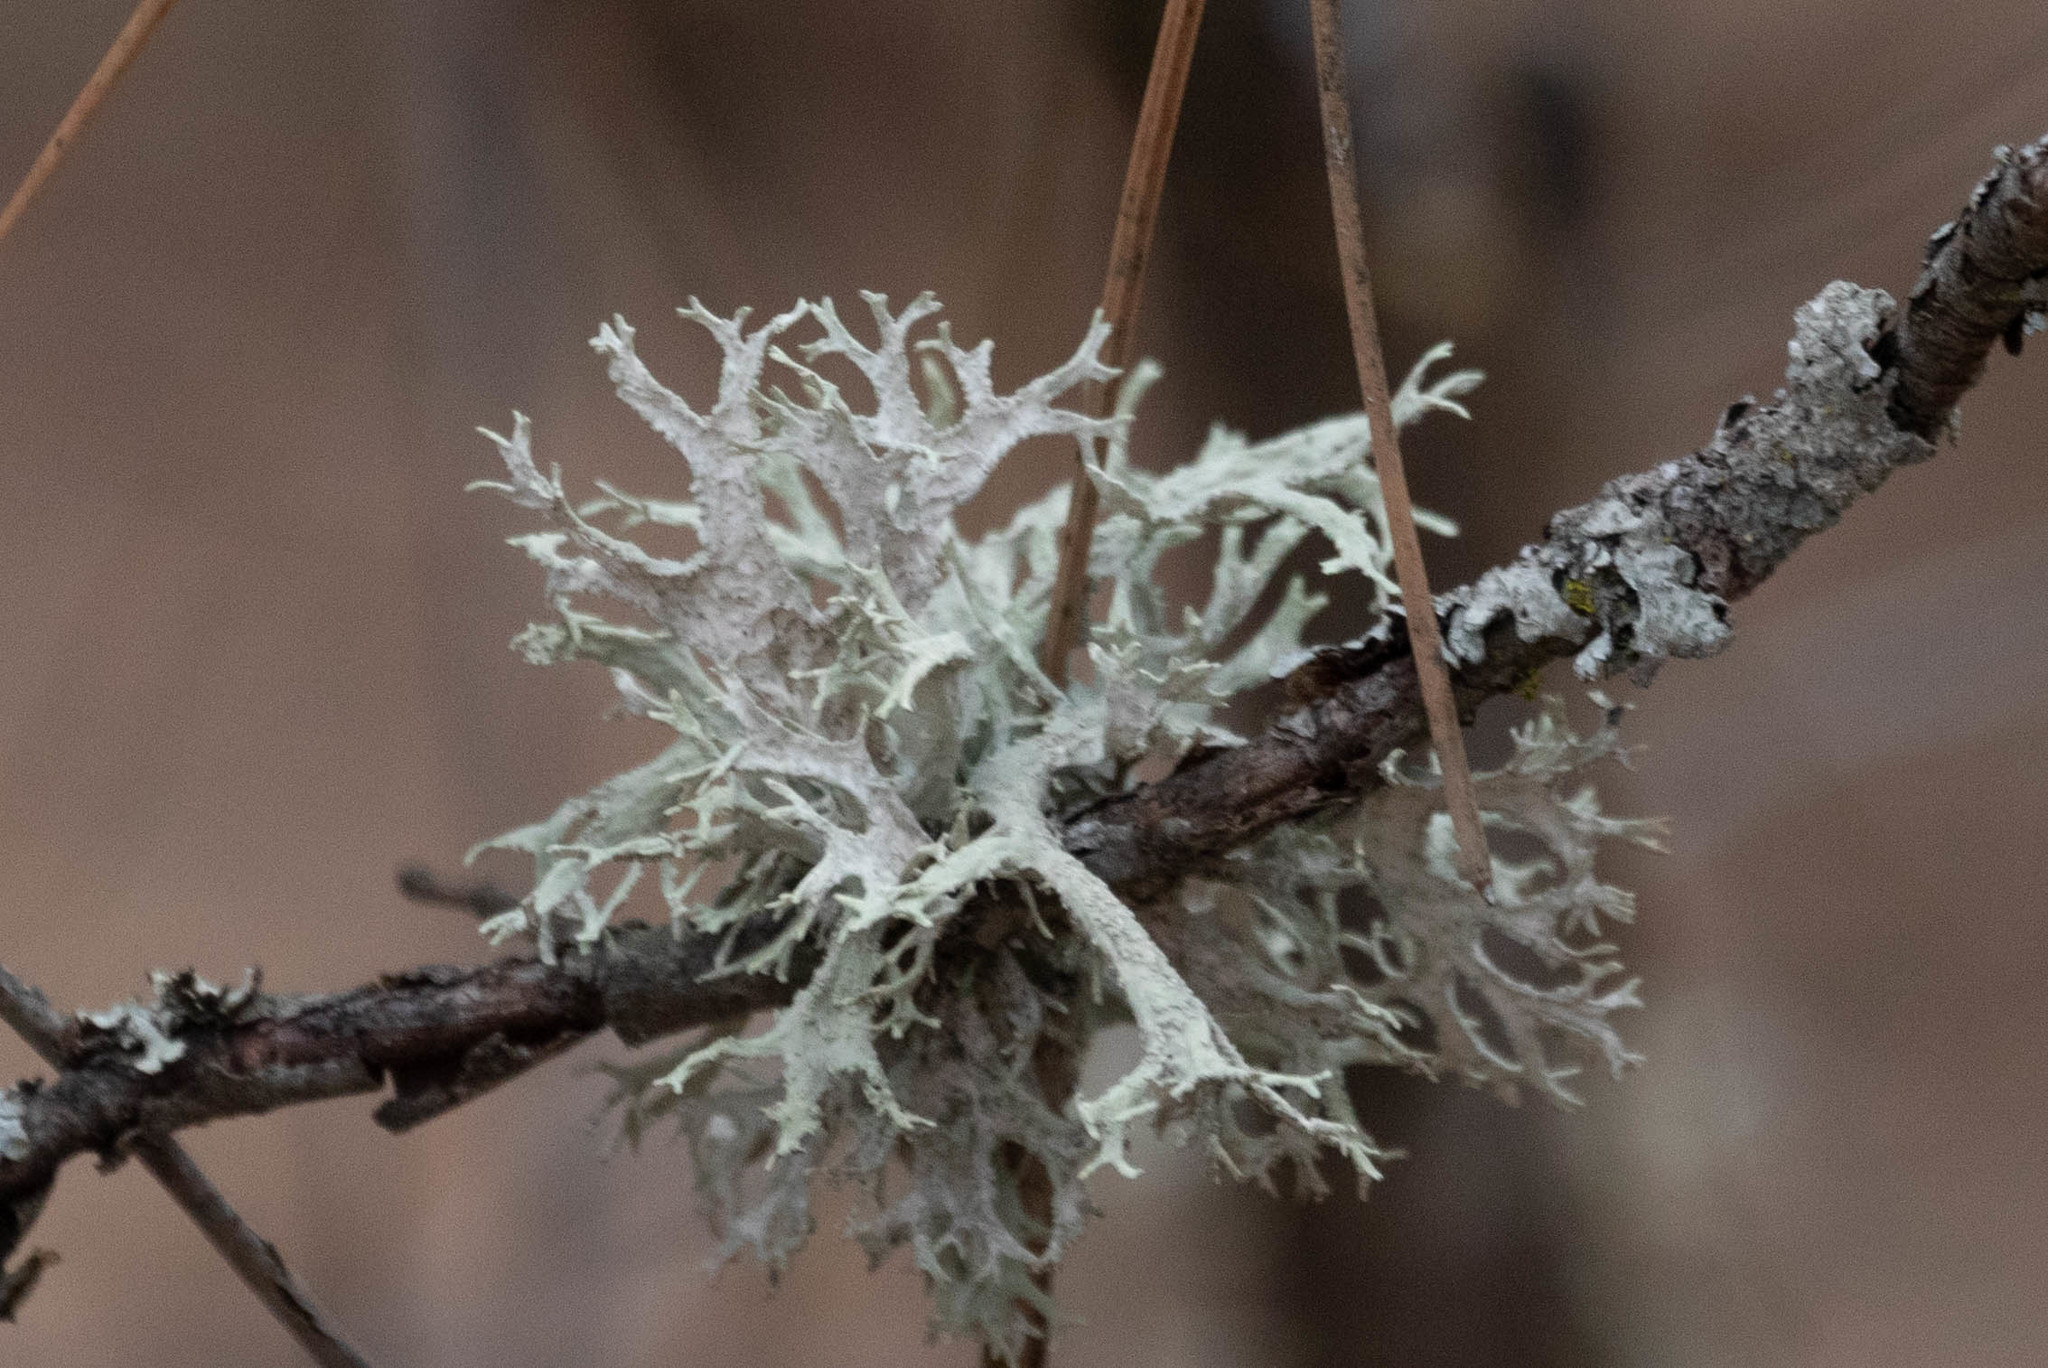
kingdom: Fungi
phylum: Ascomycota
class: Lecanoromycetes
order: Lecanorales
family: Parmeliaceae
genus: Evernia
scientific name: Evernia prunastri
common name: Oak moss
